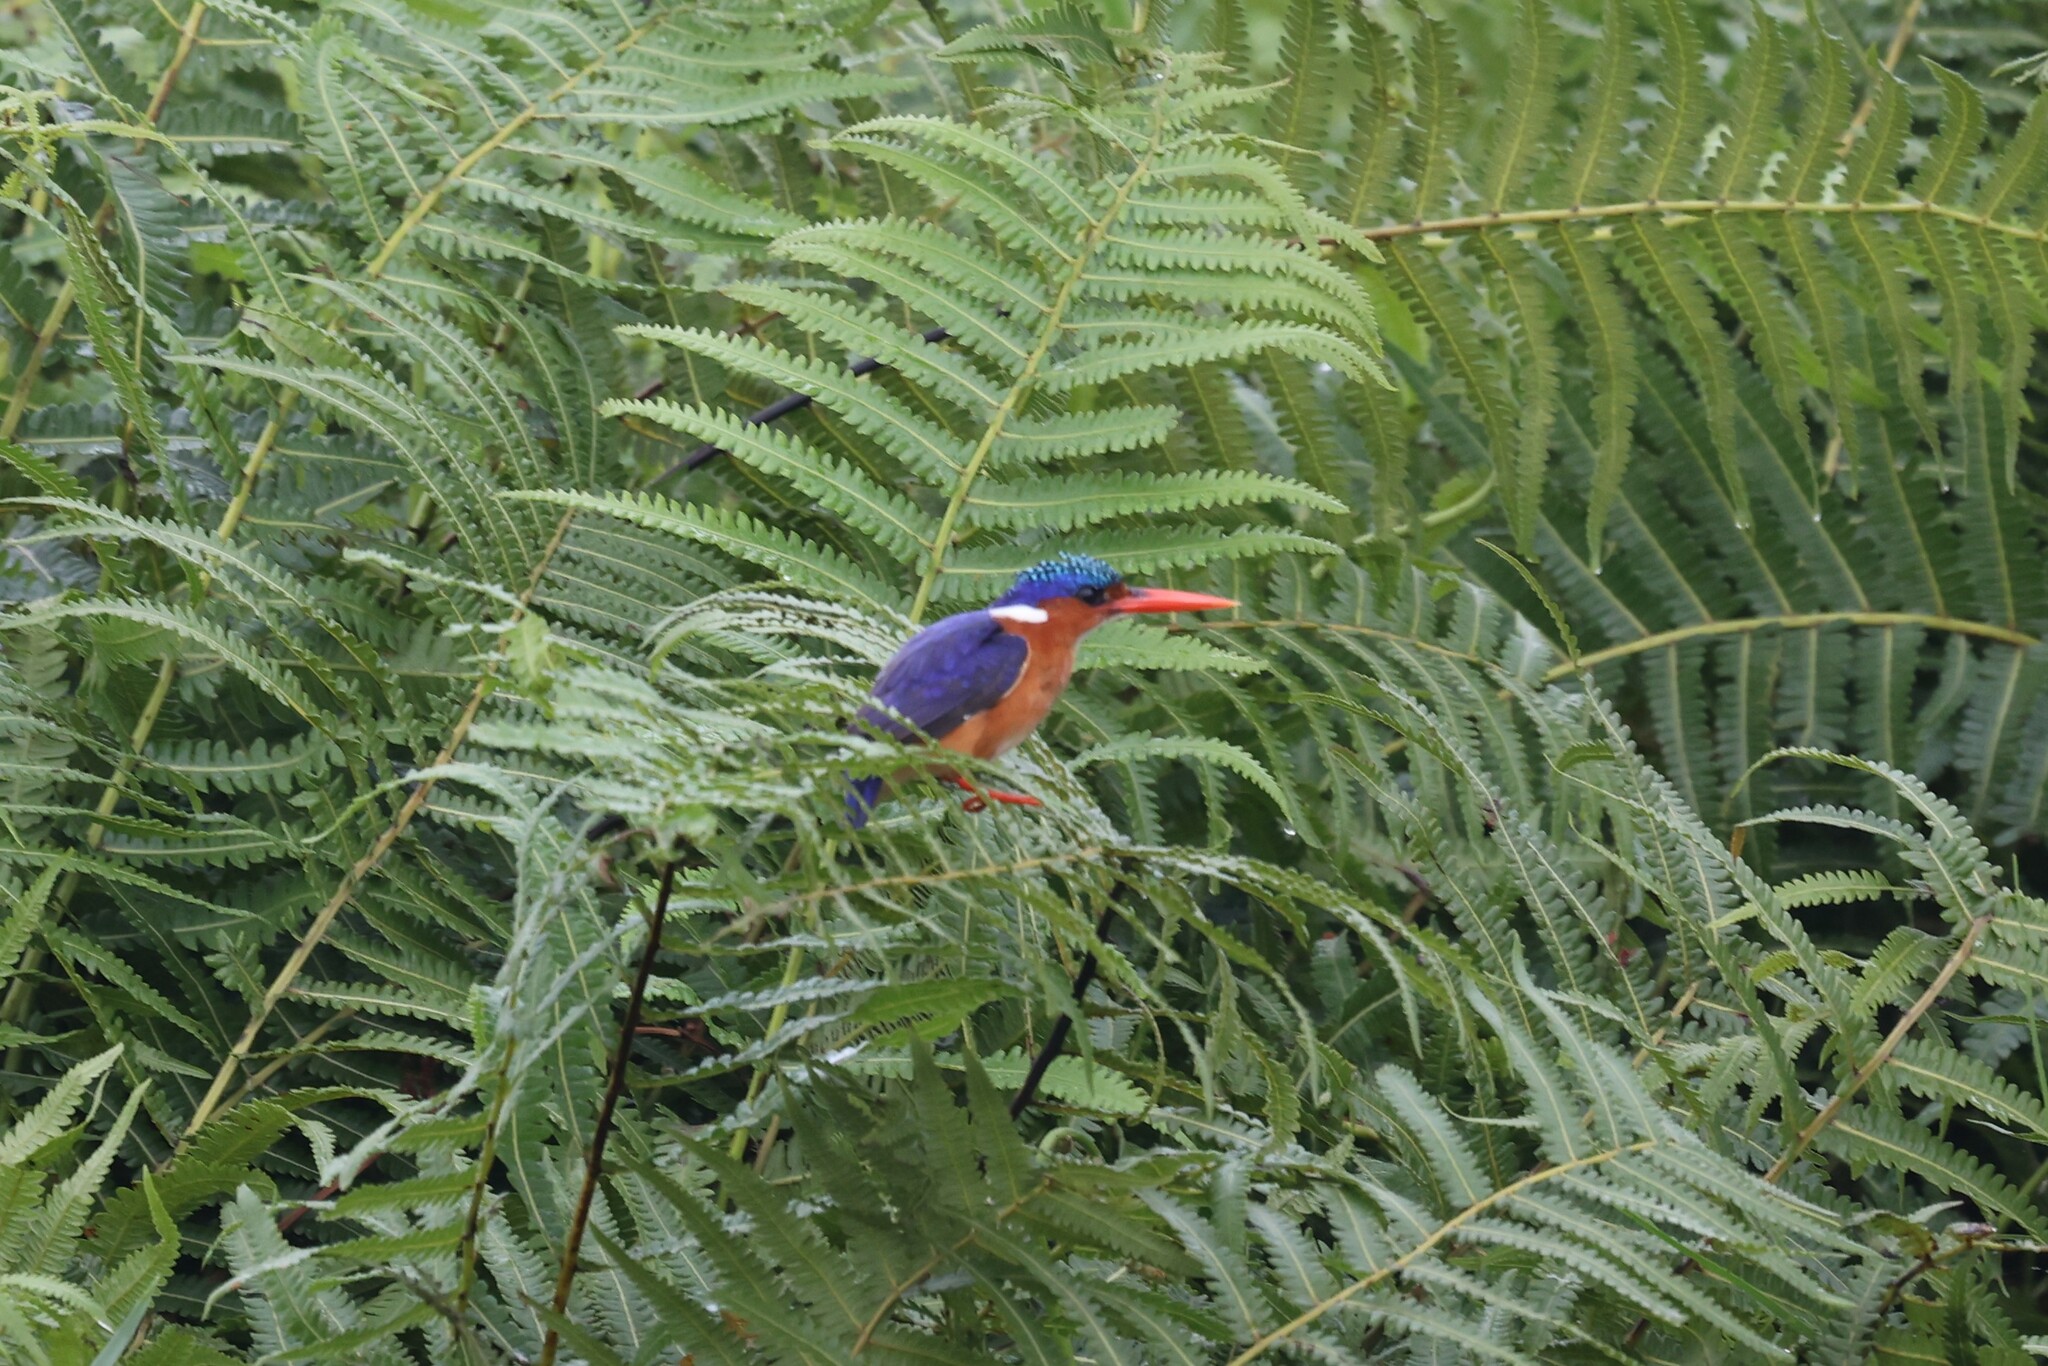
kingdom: Animalia
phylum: Chordata
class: Aves
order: Coraciiformes
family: Alcedinidae
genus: Corythornis
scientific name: Corythornis cristatus
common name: Malachite kingfisher
